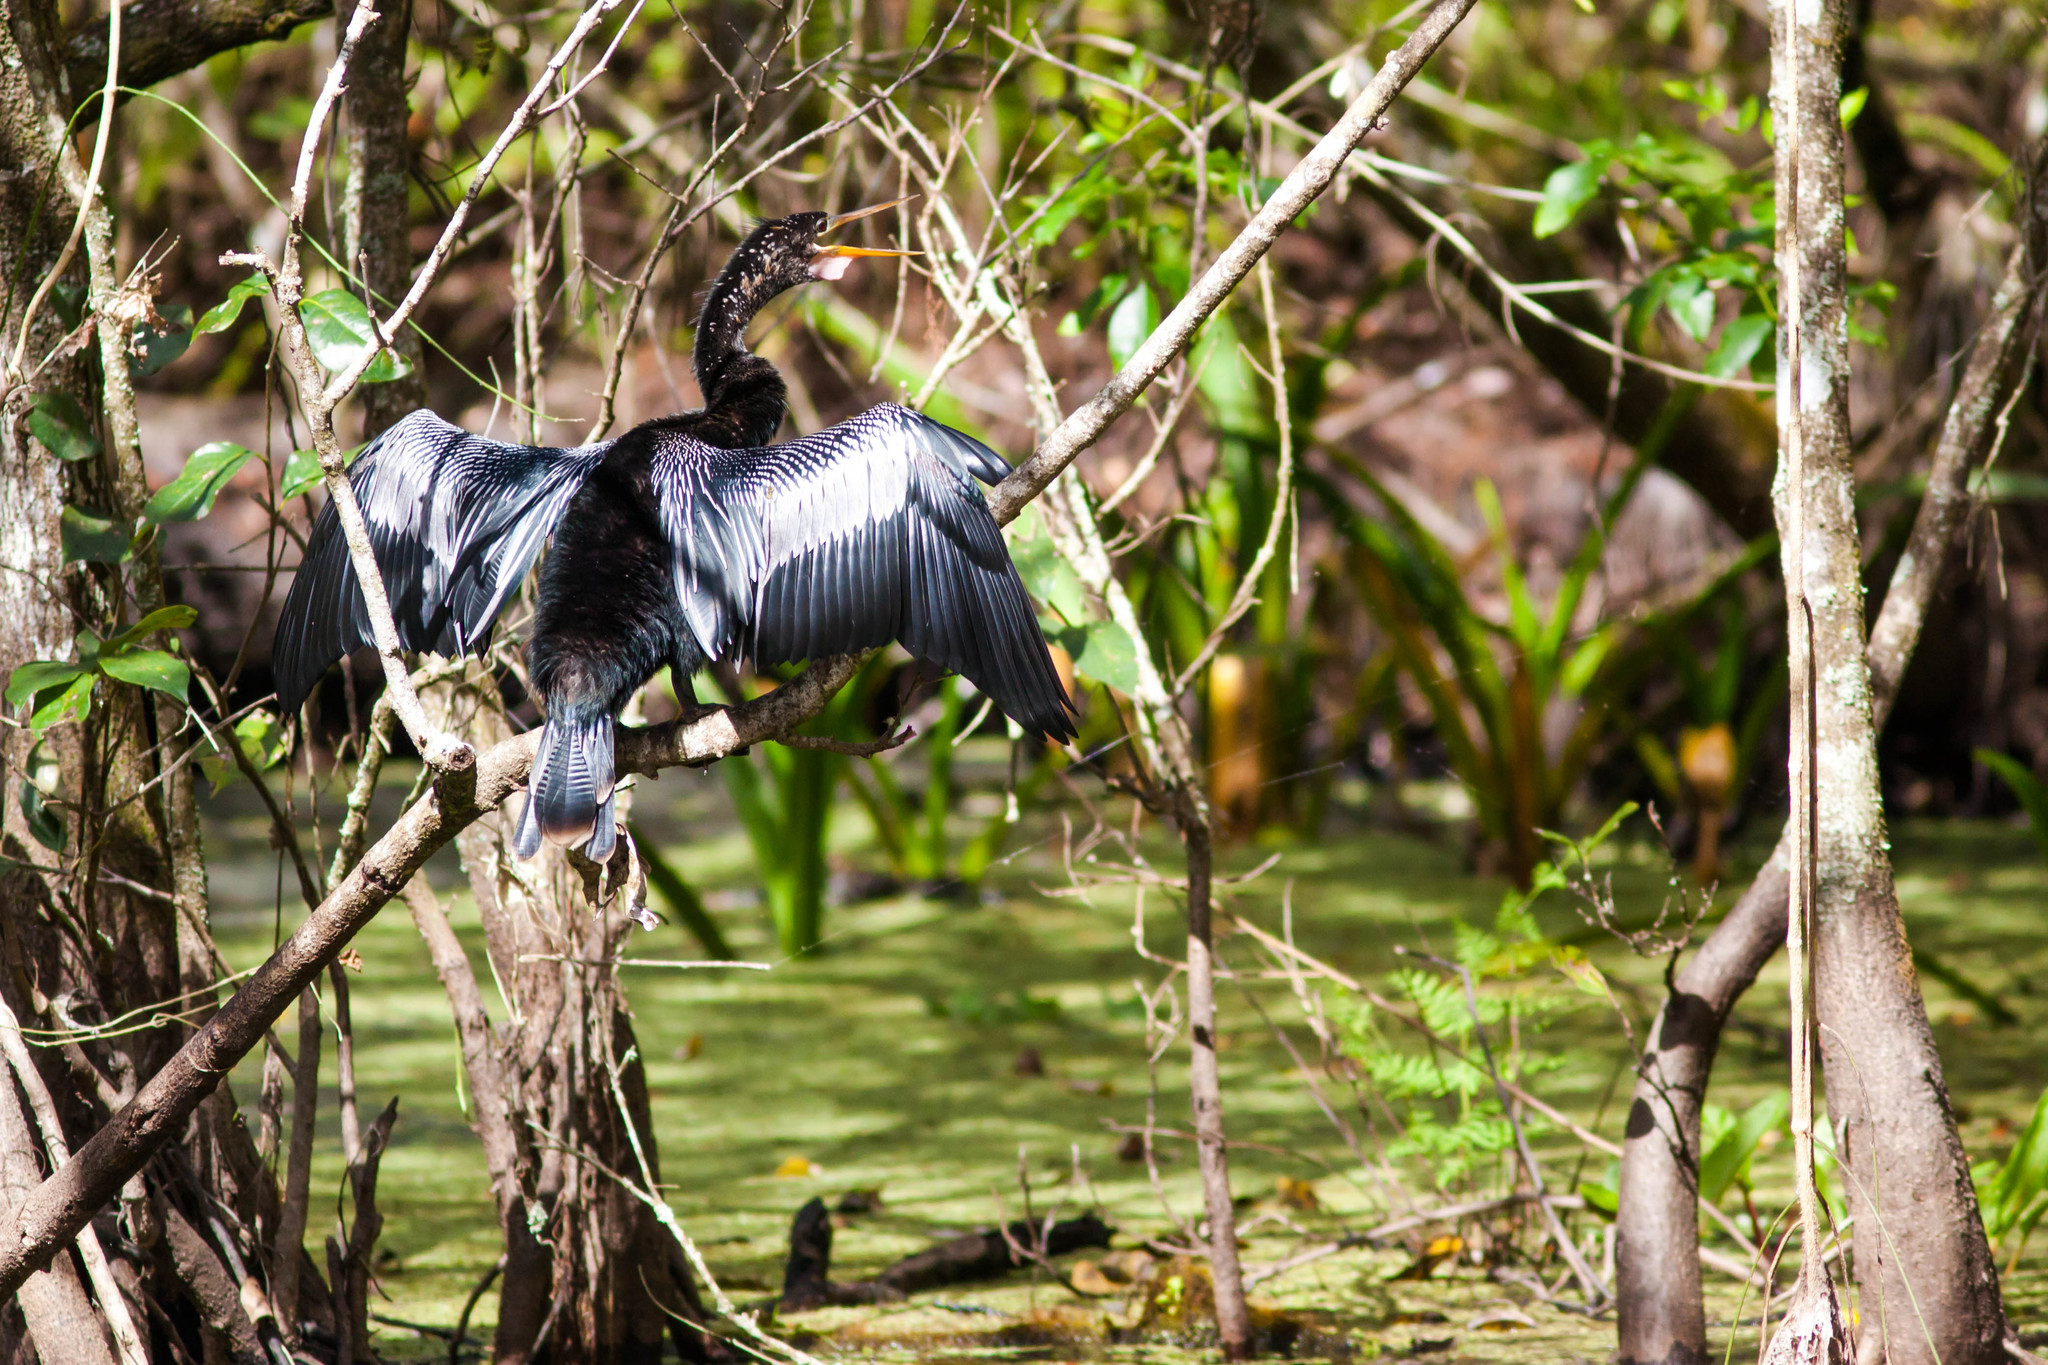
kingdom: Animalia
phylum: Chordata
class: Aves
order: Suliformes
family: Anhingidae
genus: Anhinga
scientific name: Anhinga anhinga
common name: Anhinga
